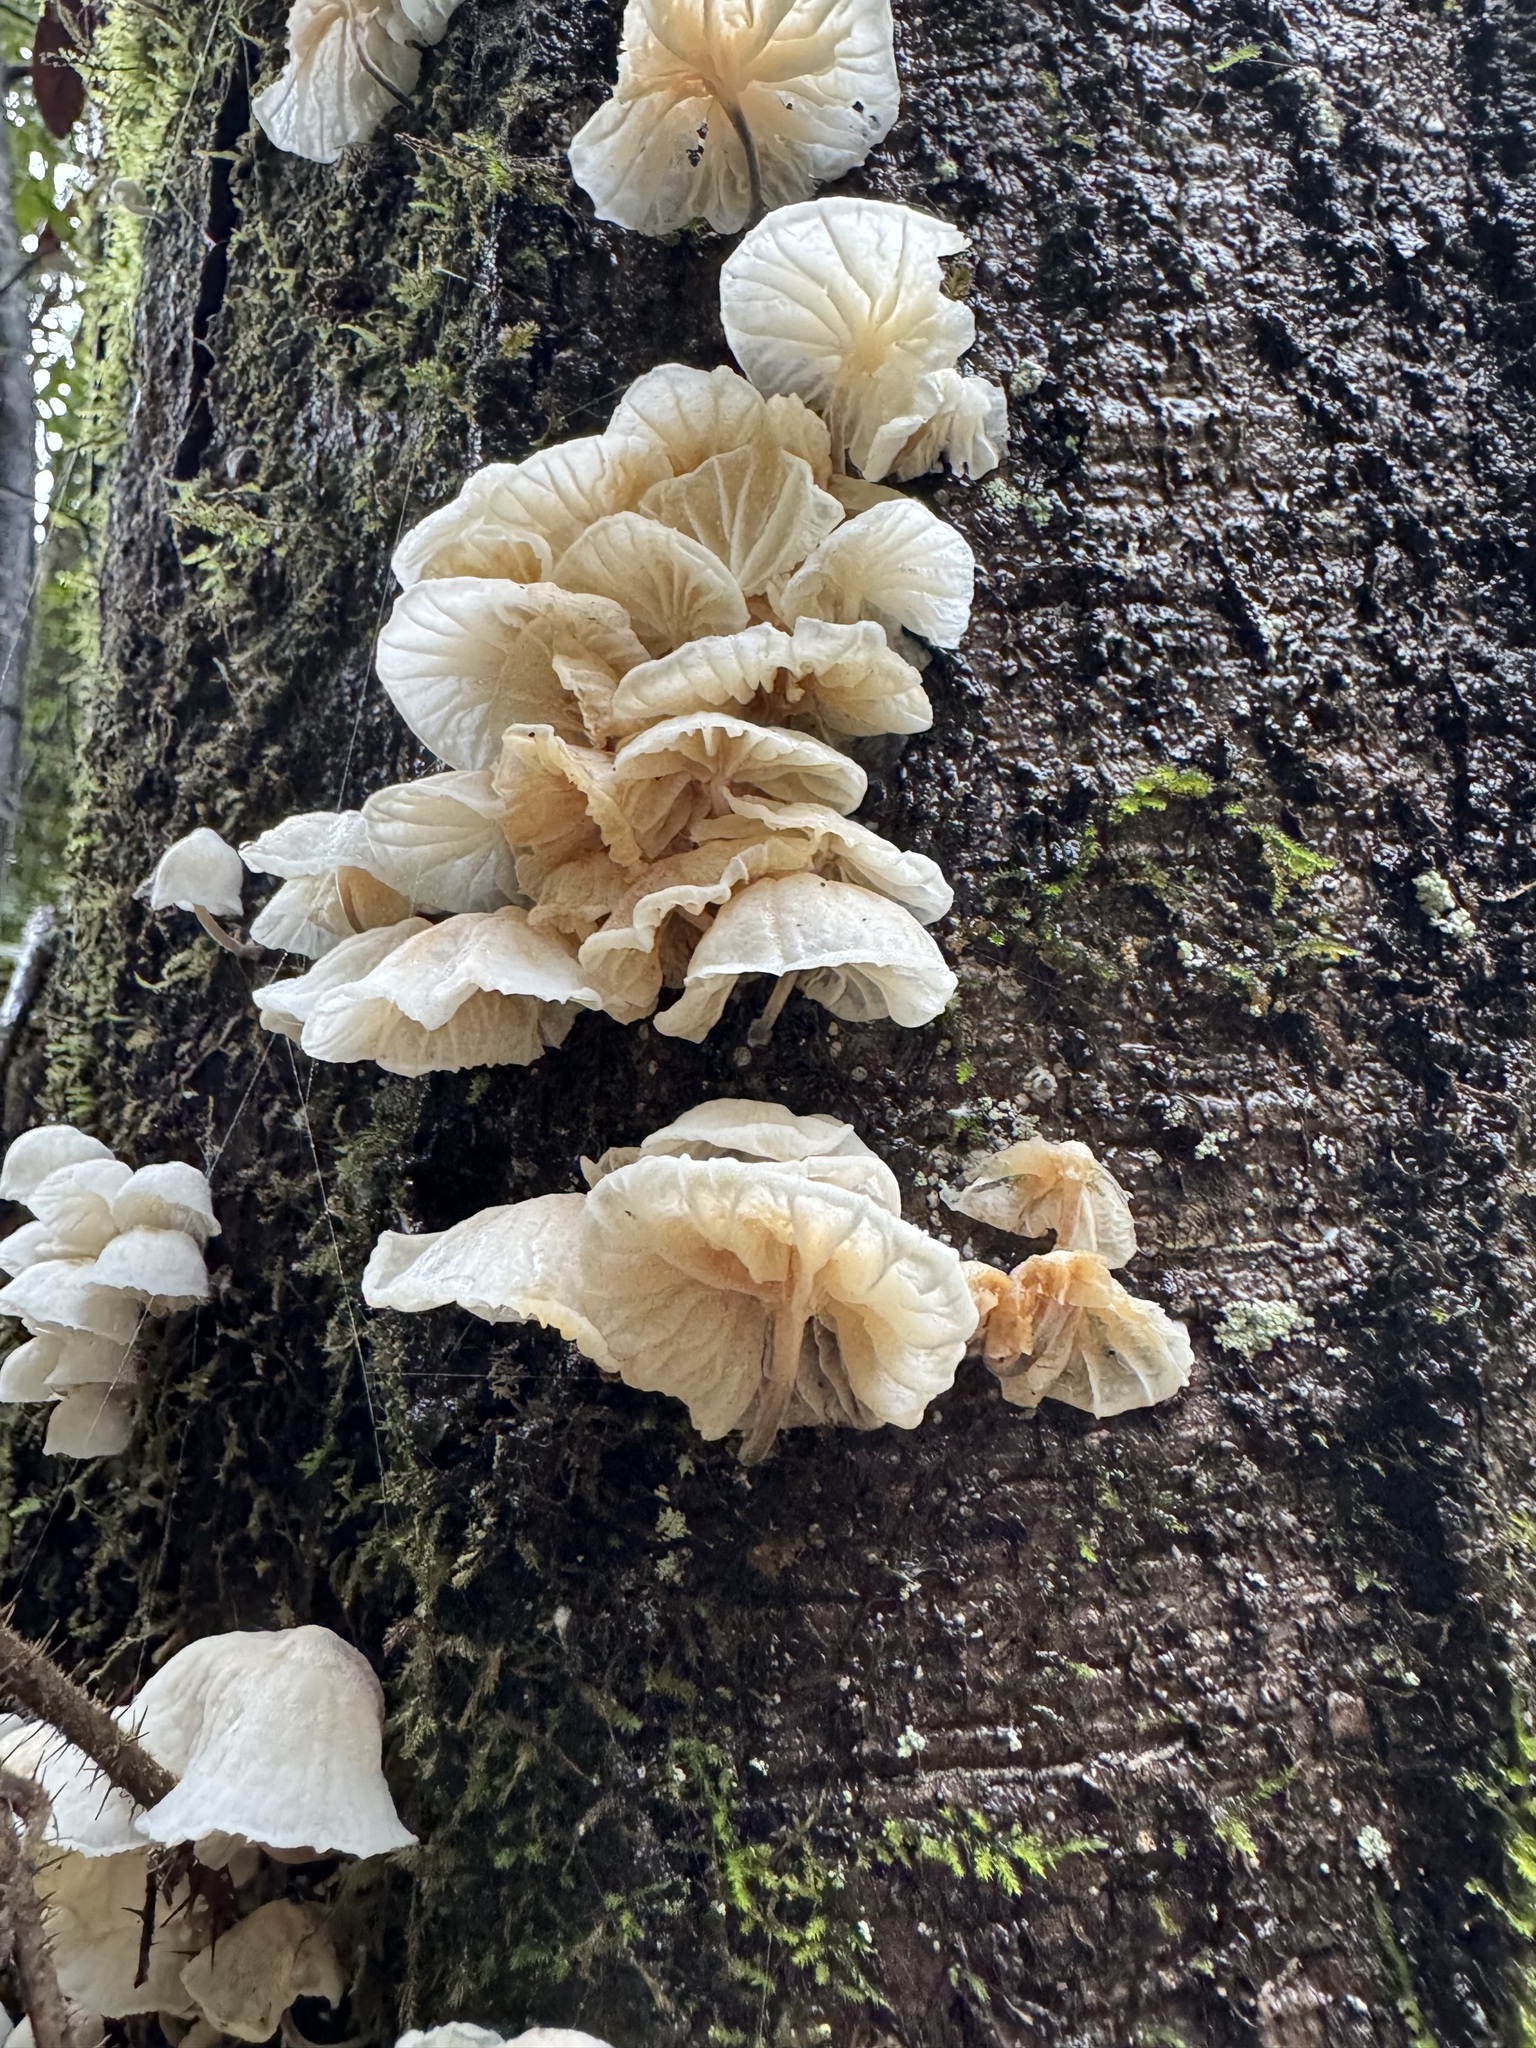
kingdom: Fungi
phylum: Basidiomycota
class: Agaricomycetes
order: Agaricales
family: Omphalotaceae
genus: Marasmiellus
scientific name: Marasmiellus candidus
